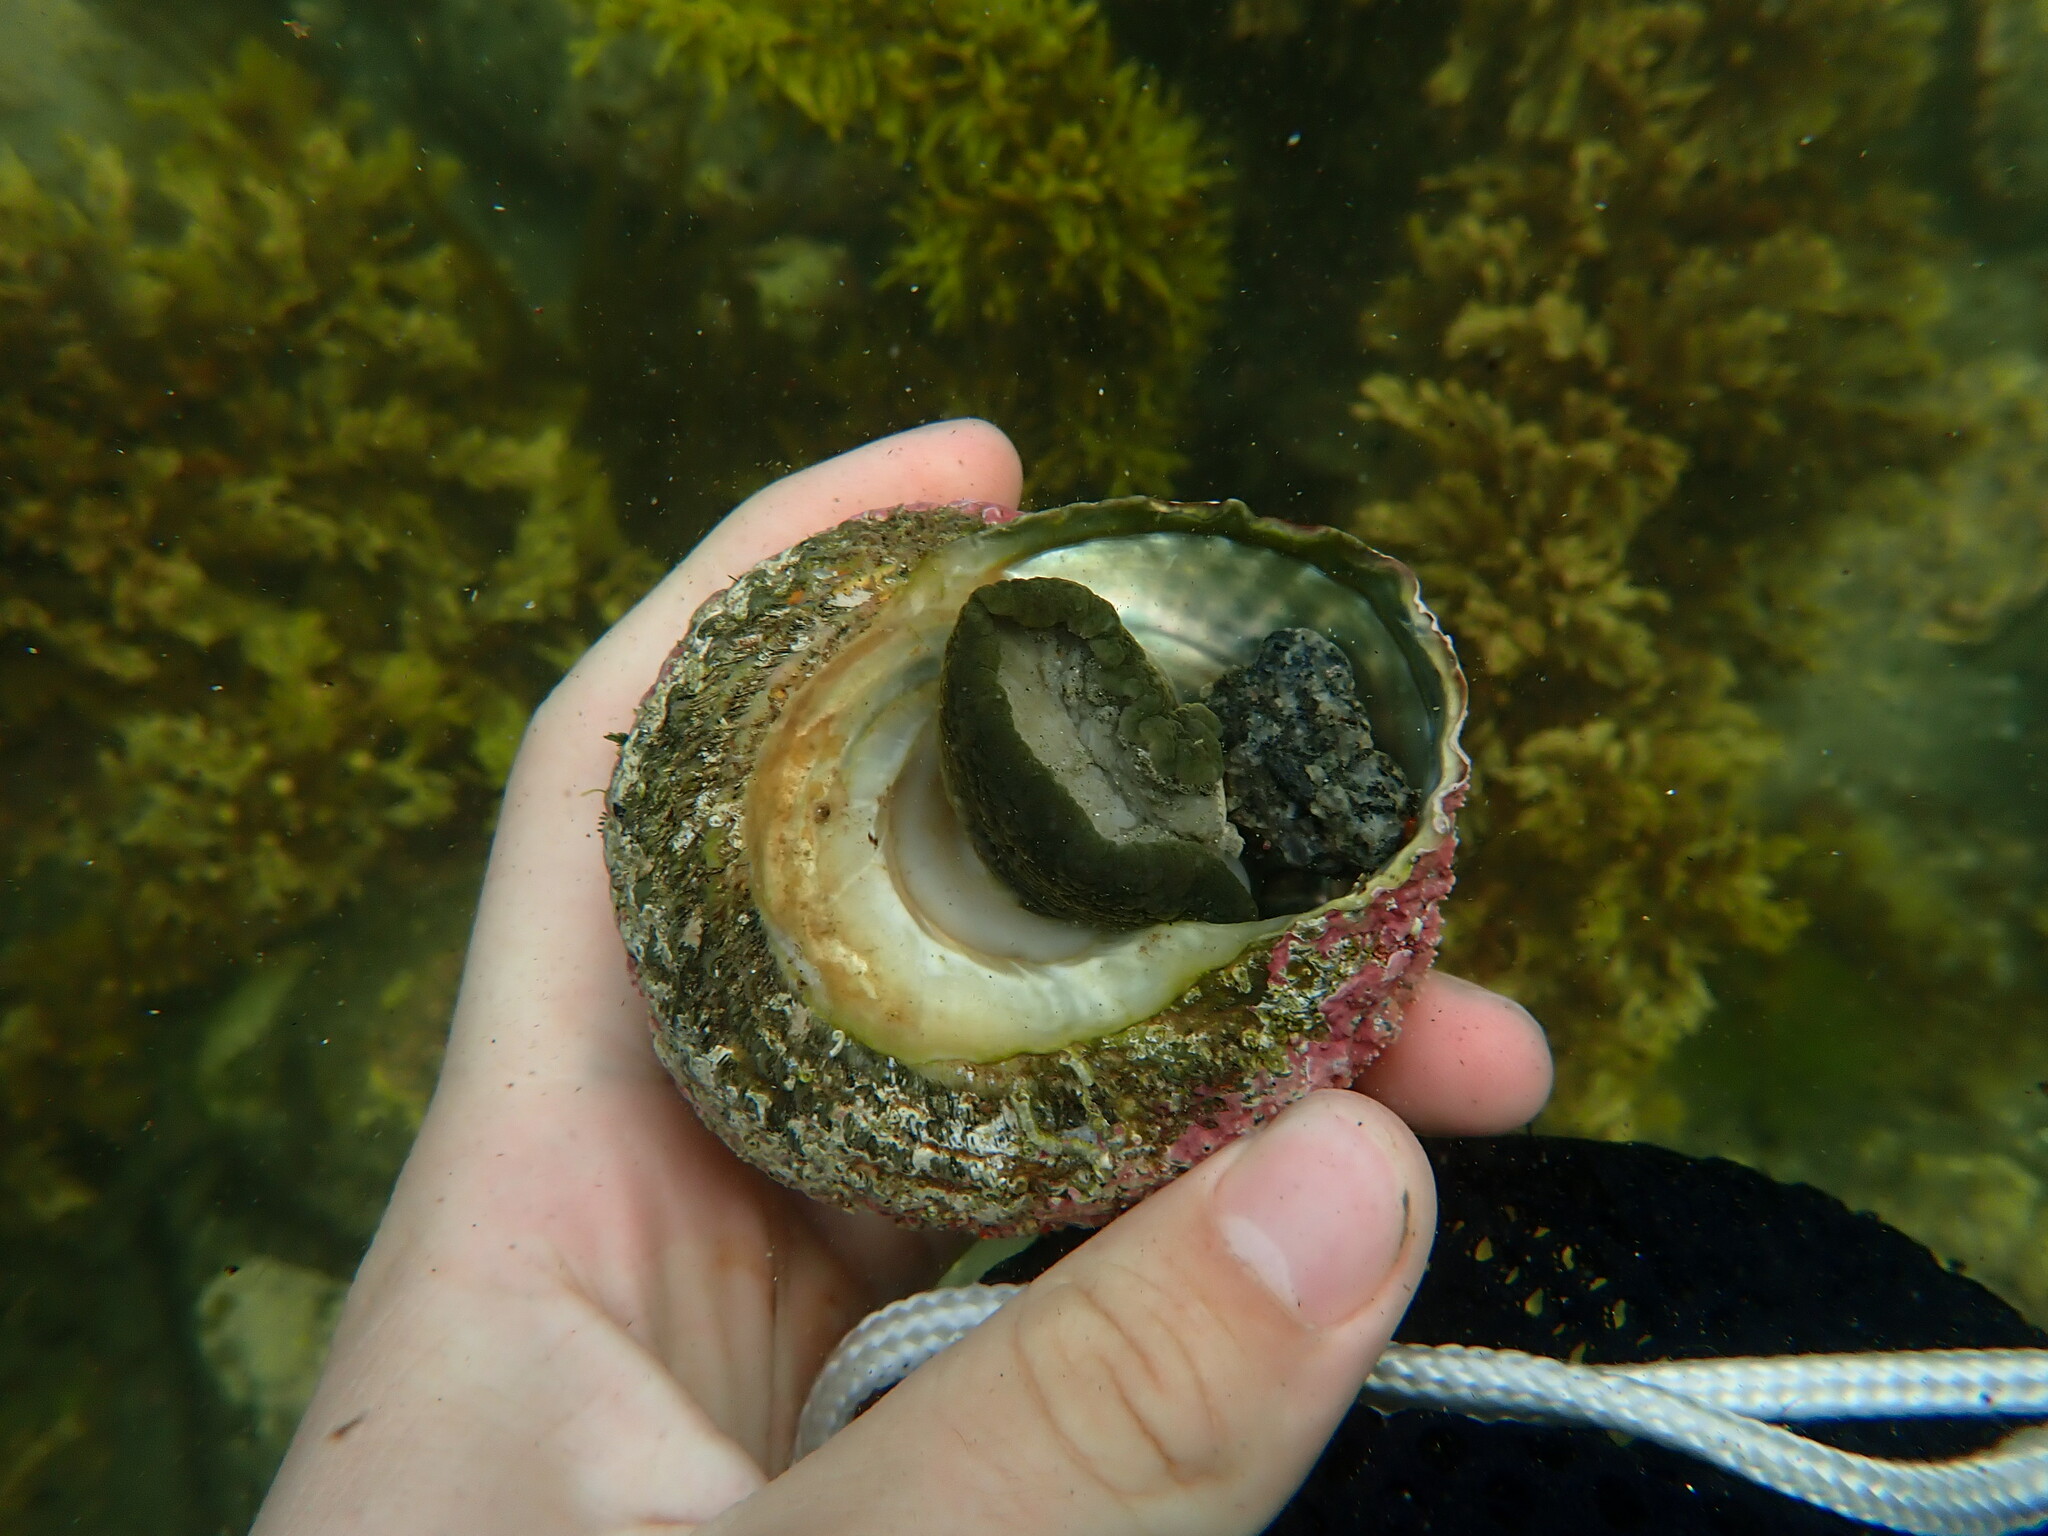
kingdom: Animalia
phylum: Mollusca
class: Gastropoda
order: Trochida
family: Turbinidae
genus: Cookia
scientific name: Cookia sulcata
